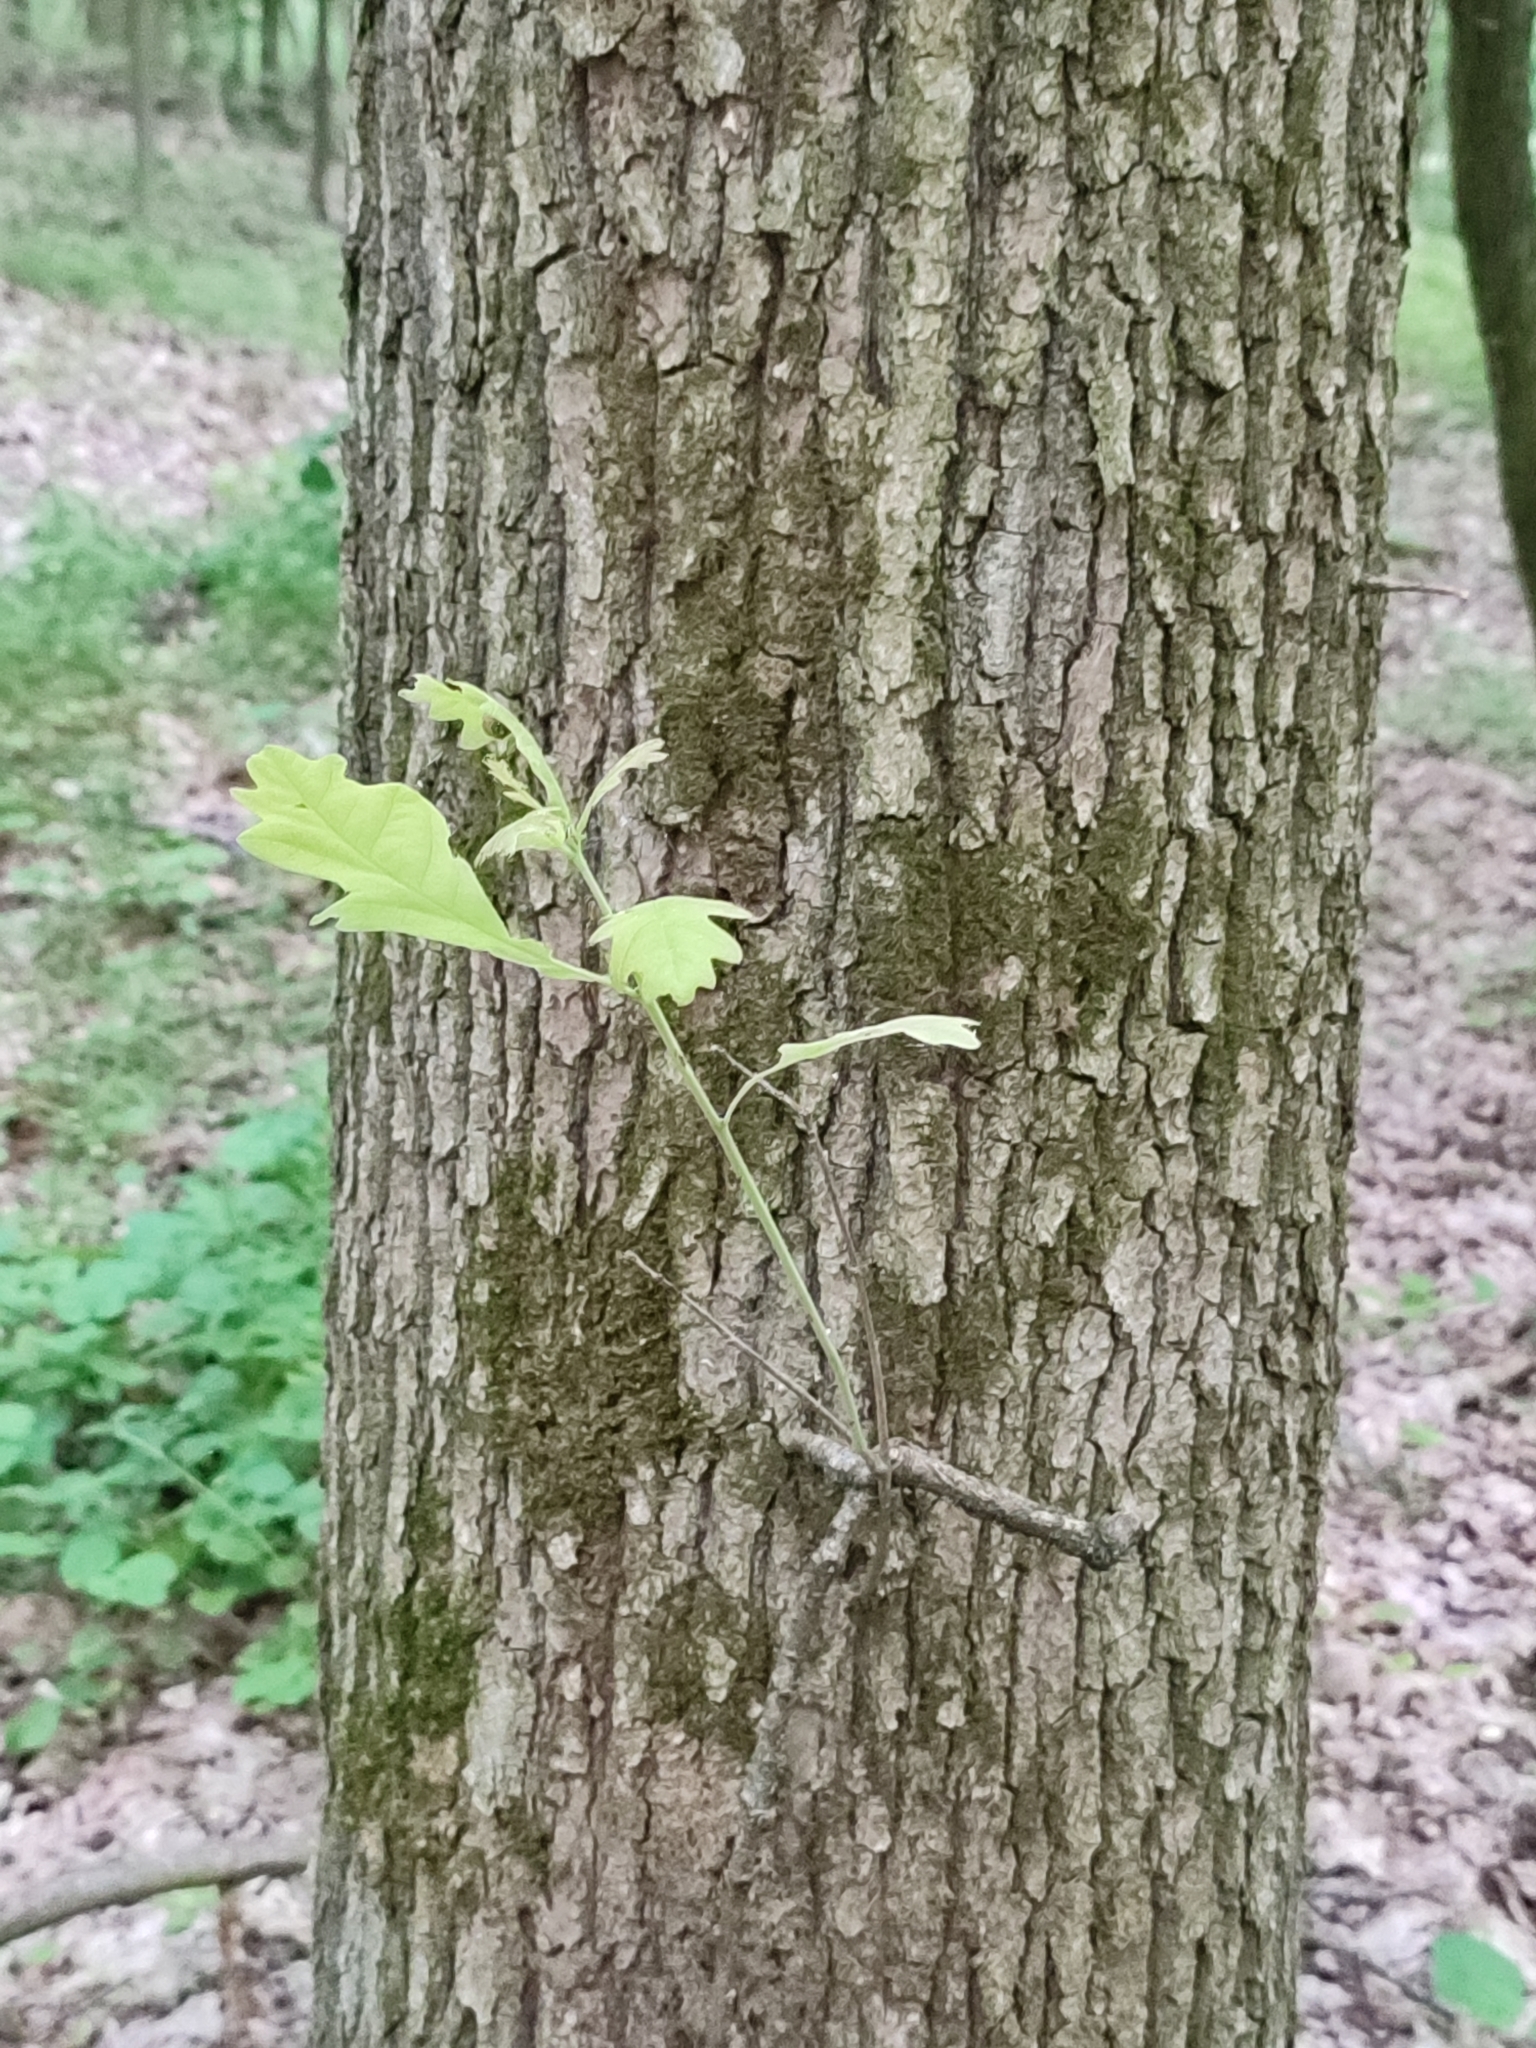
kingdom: Plantae
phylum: Tracheophyta
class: Magnoliopsida
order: Fagales
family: Fagaceae
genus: Quercus
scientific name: Quercus robur
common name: Pedunculate oak
